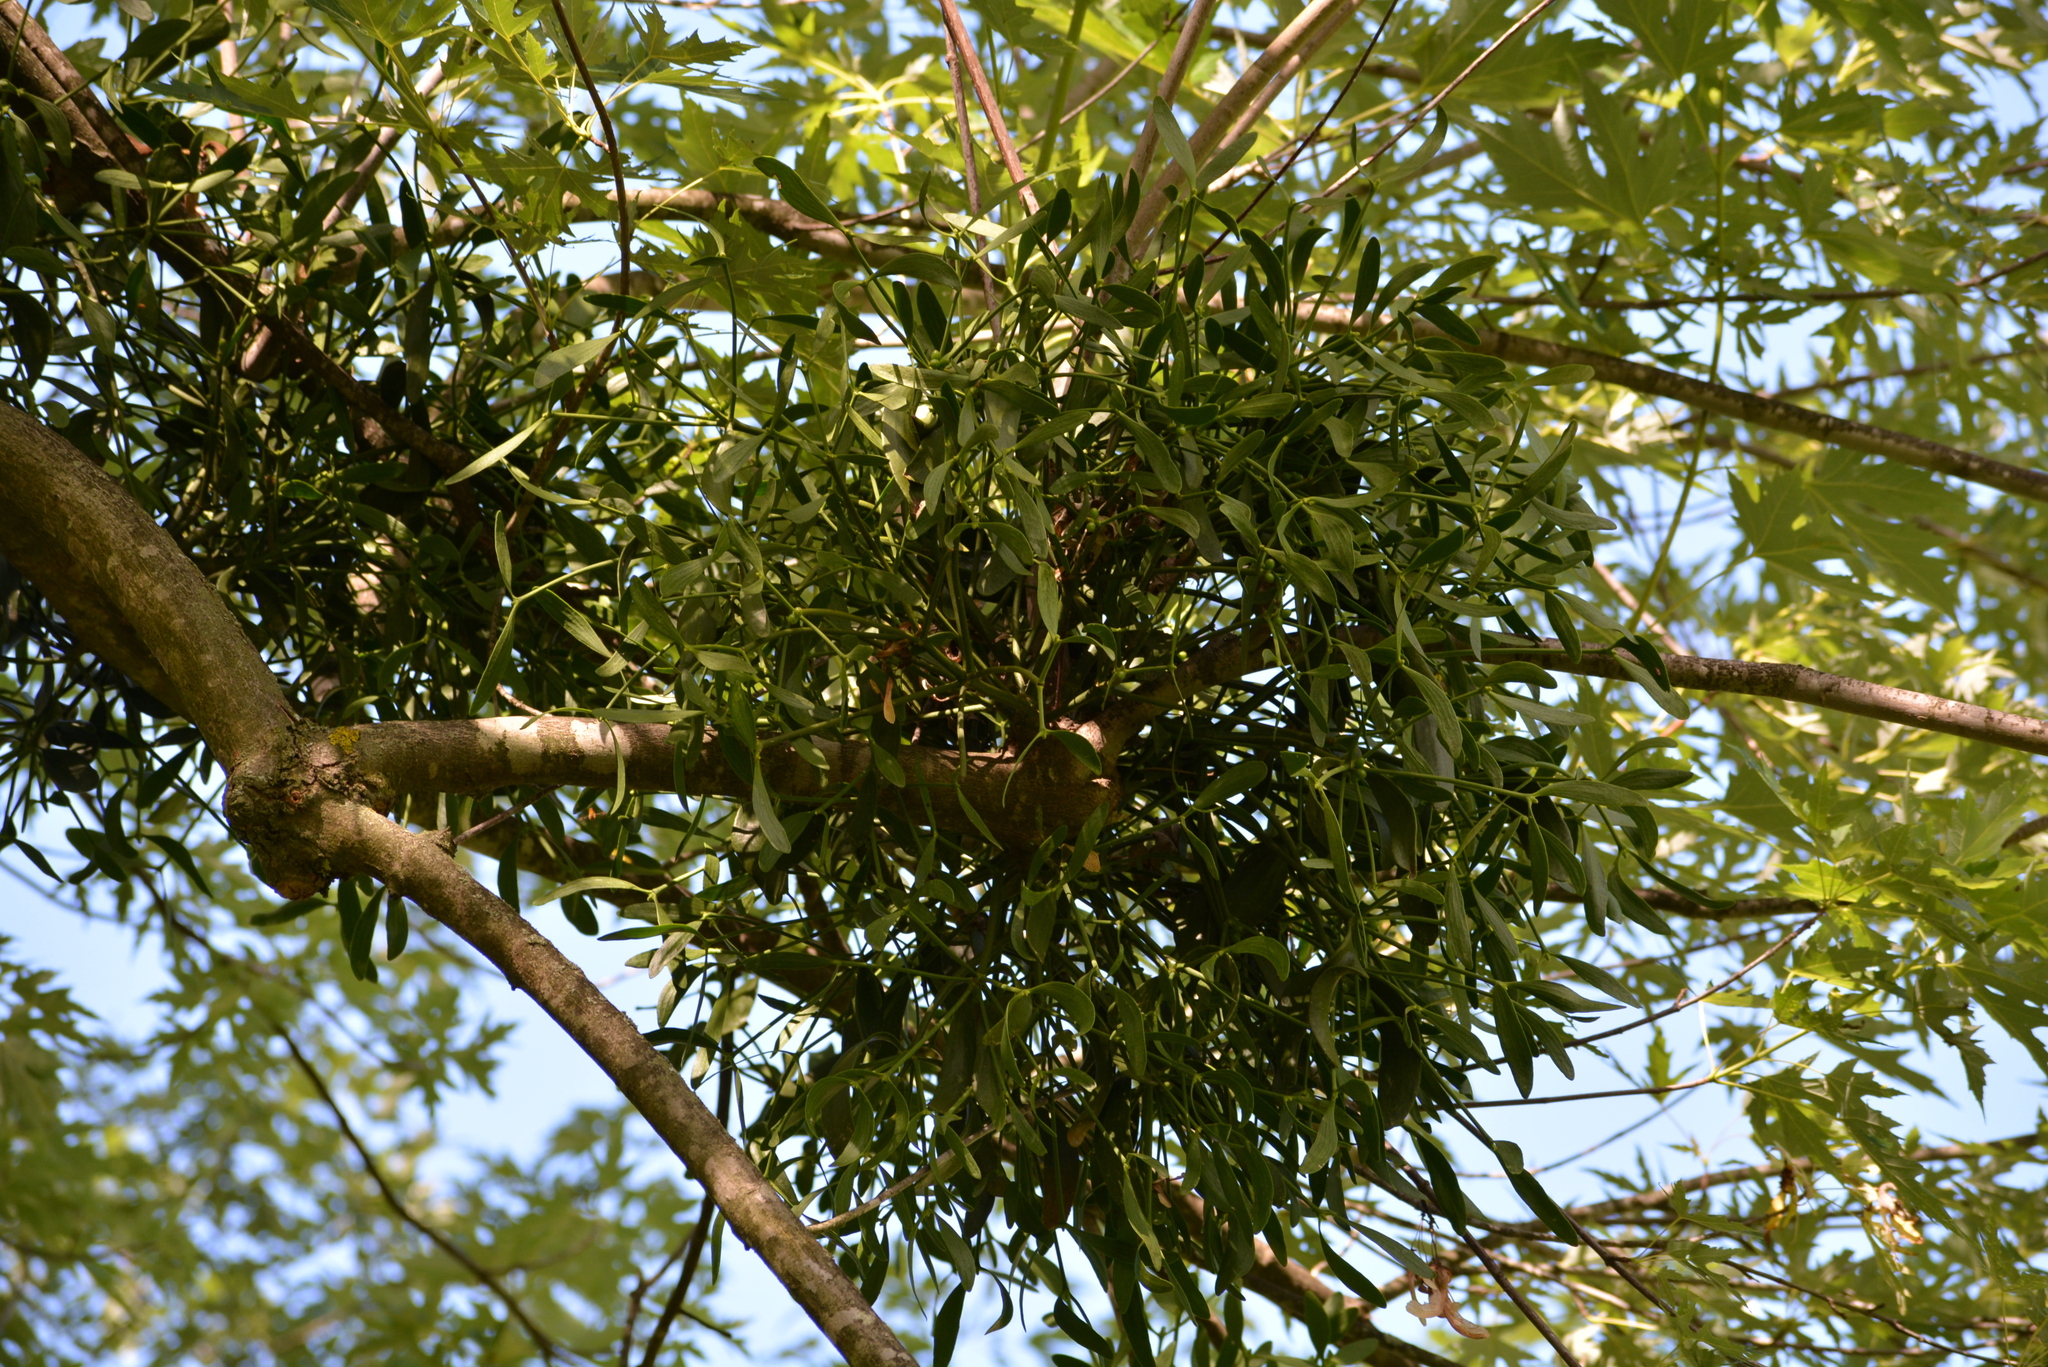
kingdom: Plantae
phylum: Tracheophyta
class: Magnoliopsida
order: Santalales
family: Viscaceae
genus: Viscum
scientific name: Viscum album
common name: Mistletoe
